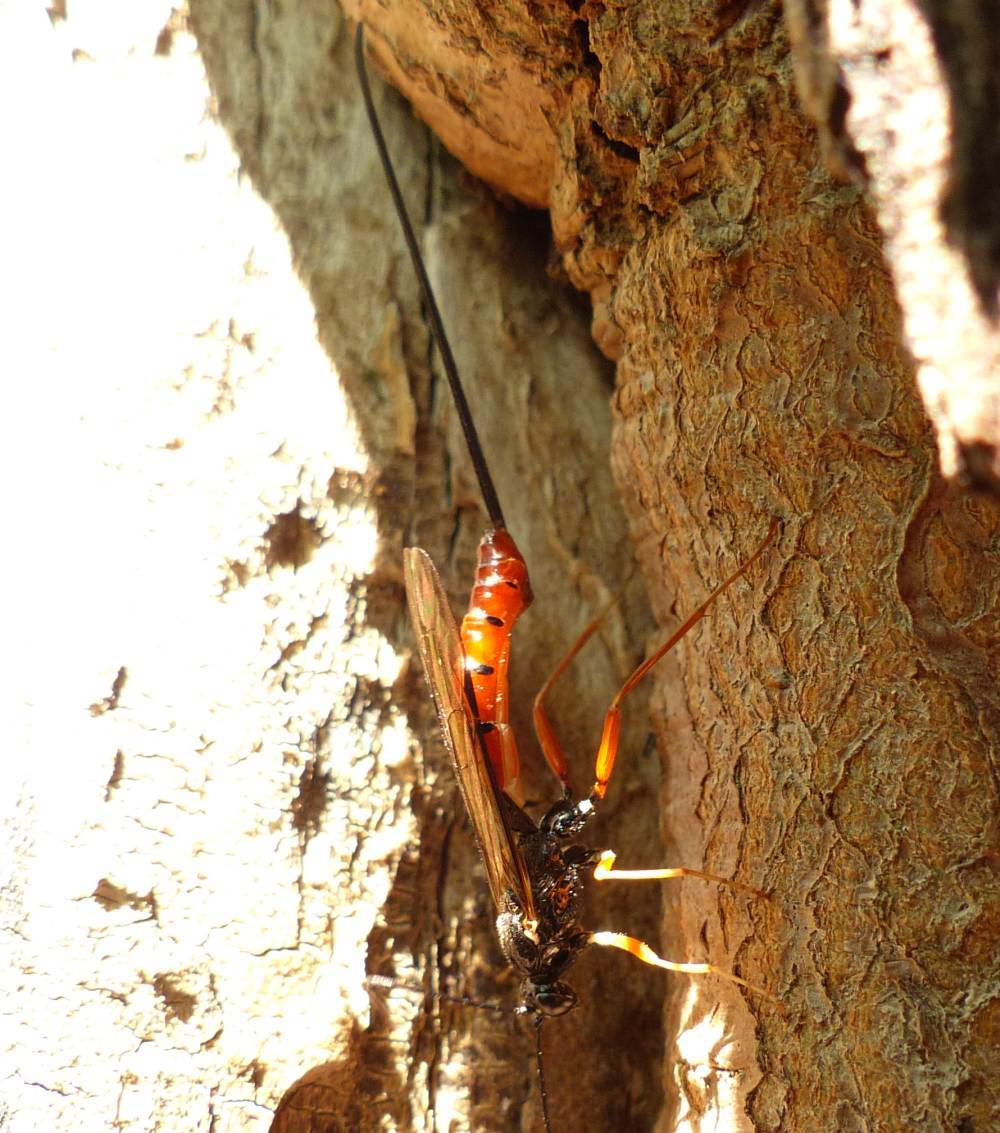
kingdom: Animalia
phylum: Arthropoda
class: Insecta
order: Hymenoptera
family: Ichneumonidae
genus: Dolichomitus
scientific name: Dolichomitus irritator
